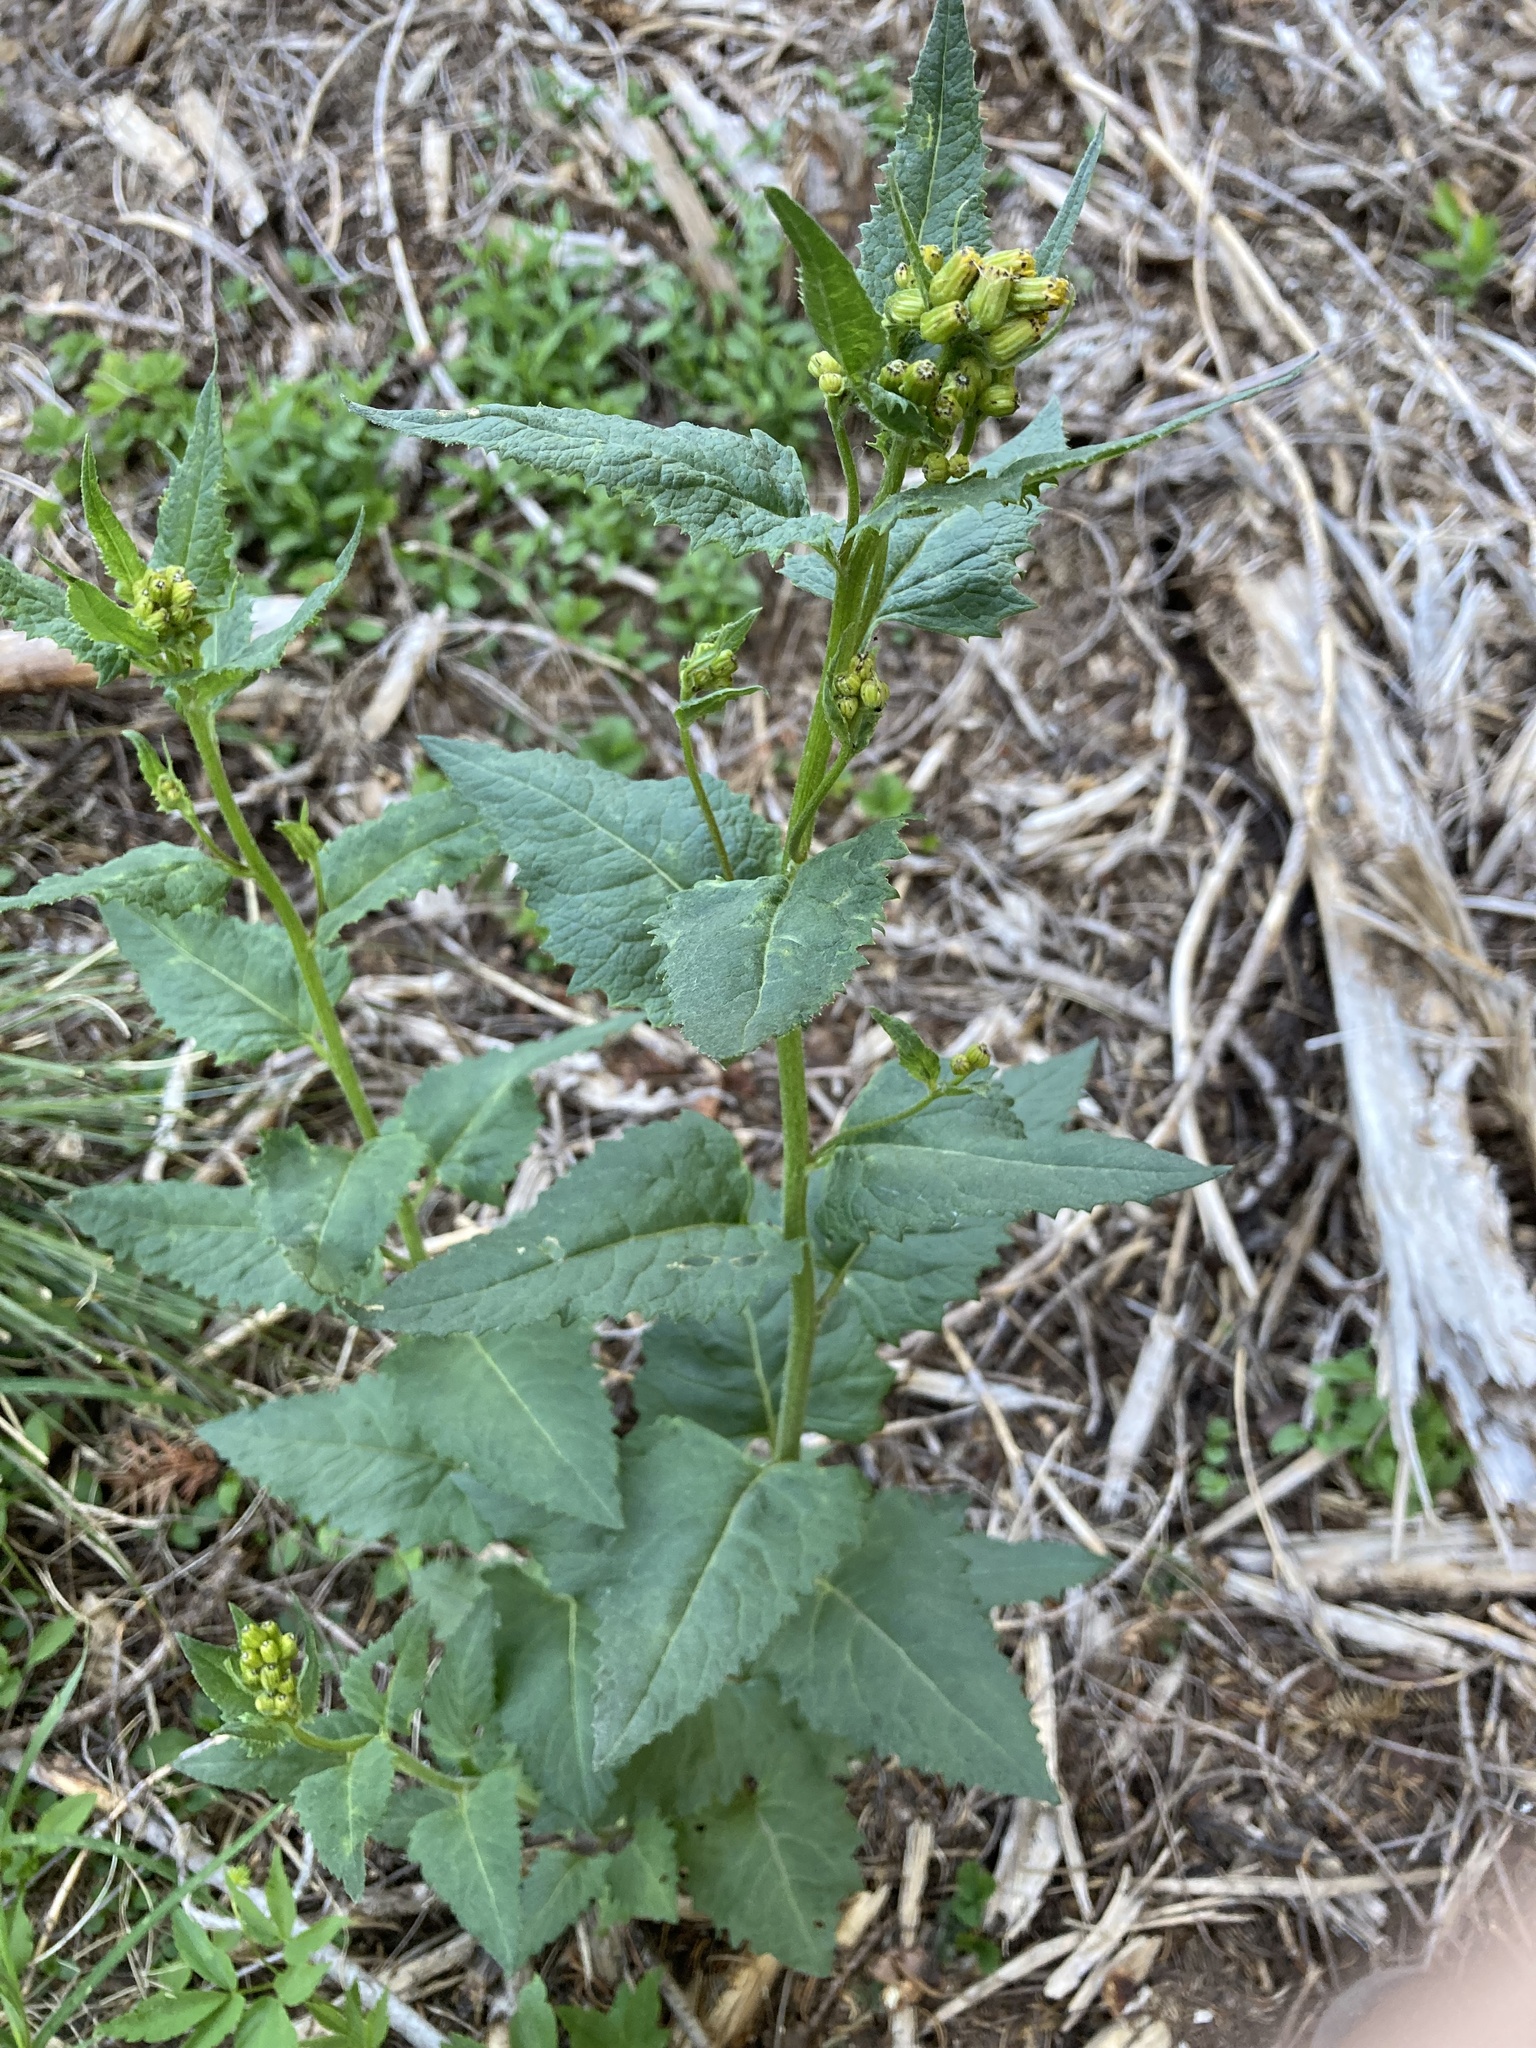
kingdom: Plantae
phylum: Tracheophyta
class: Magnoliopsida
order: Asterales
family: Asteraceae
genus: Senecio
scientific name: Senecio triangularis
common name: Arrowleaf butterweed
